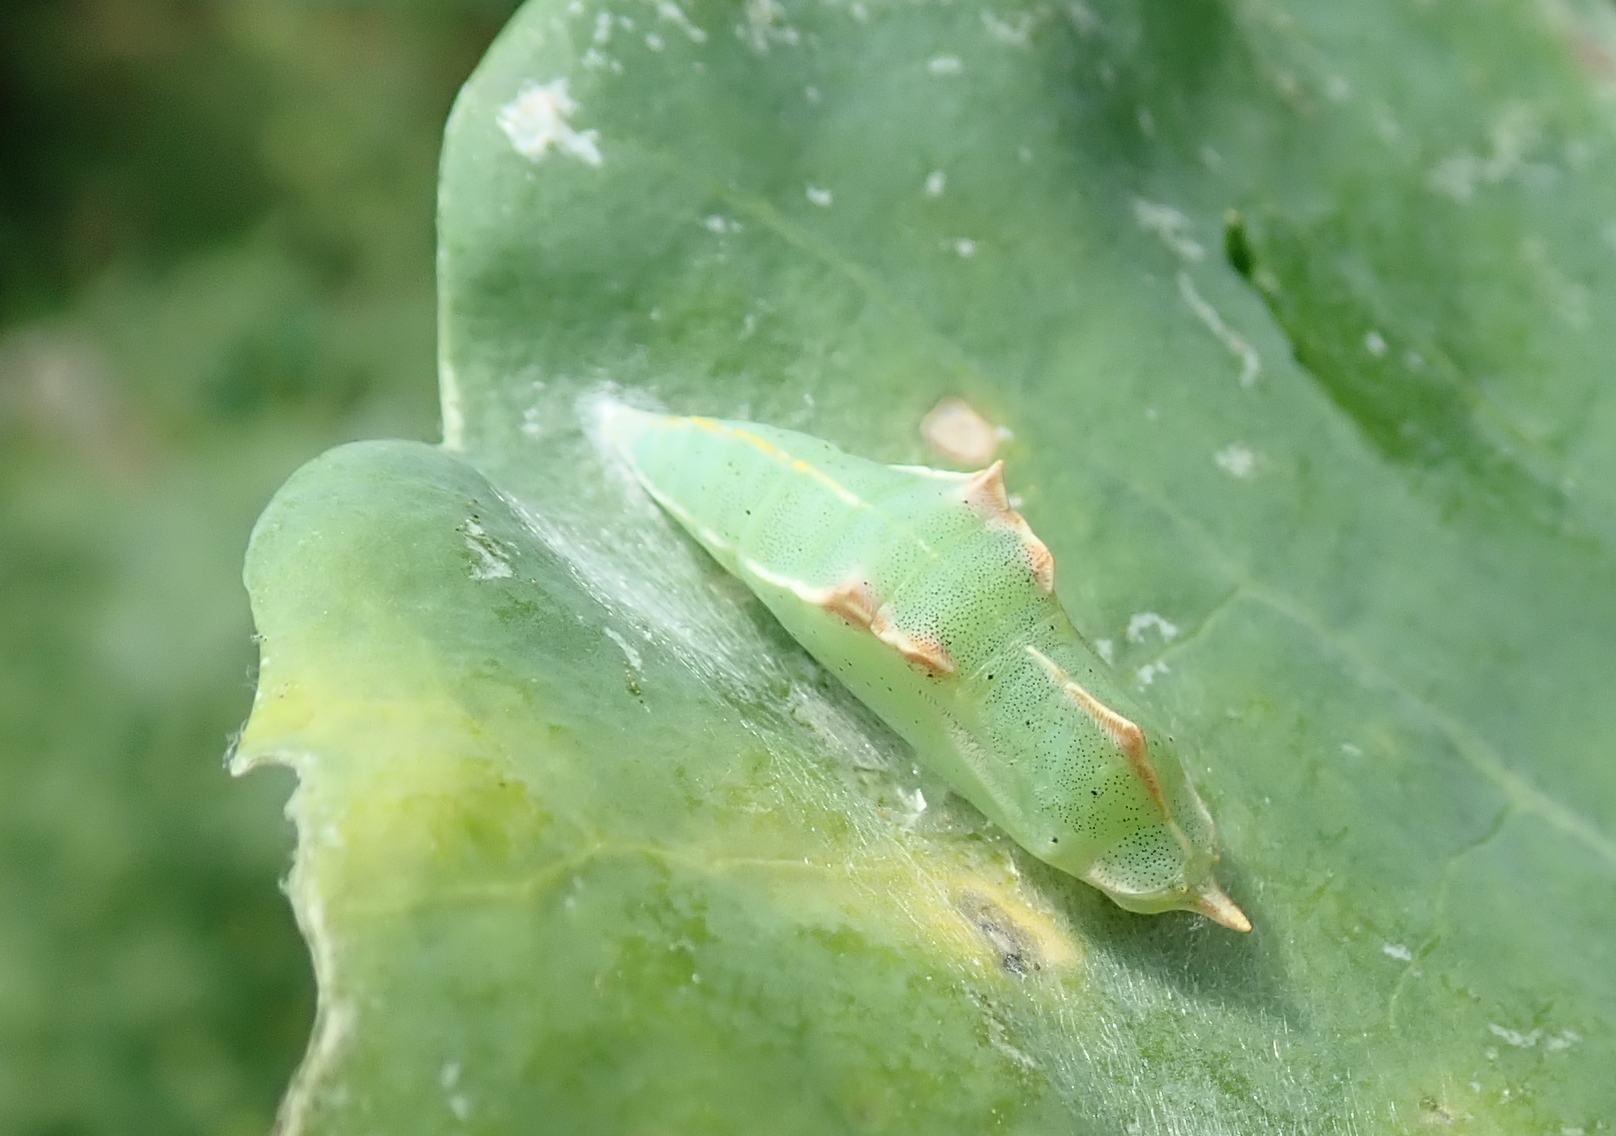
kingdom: Animalia
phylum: Arthropoda
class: Insecta
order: Lepidoptera
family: Pieridae
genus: Pieris
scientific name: Pieris rapae
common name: Small white
